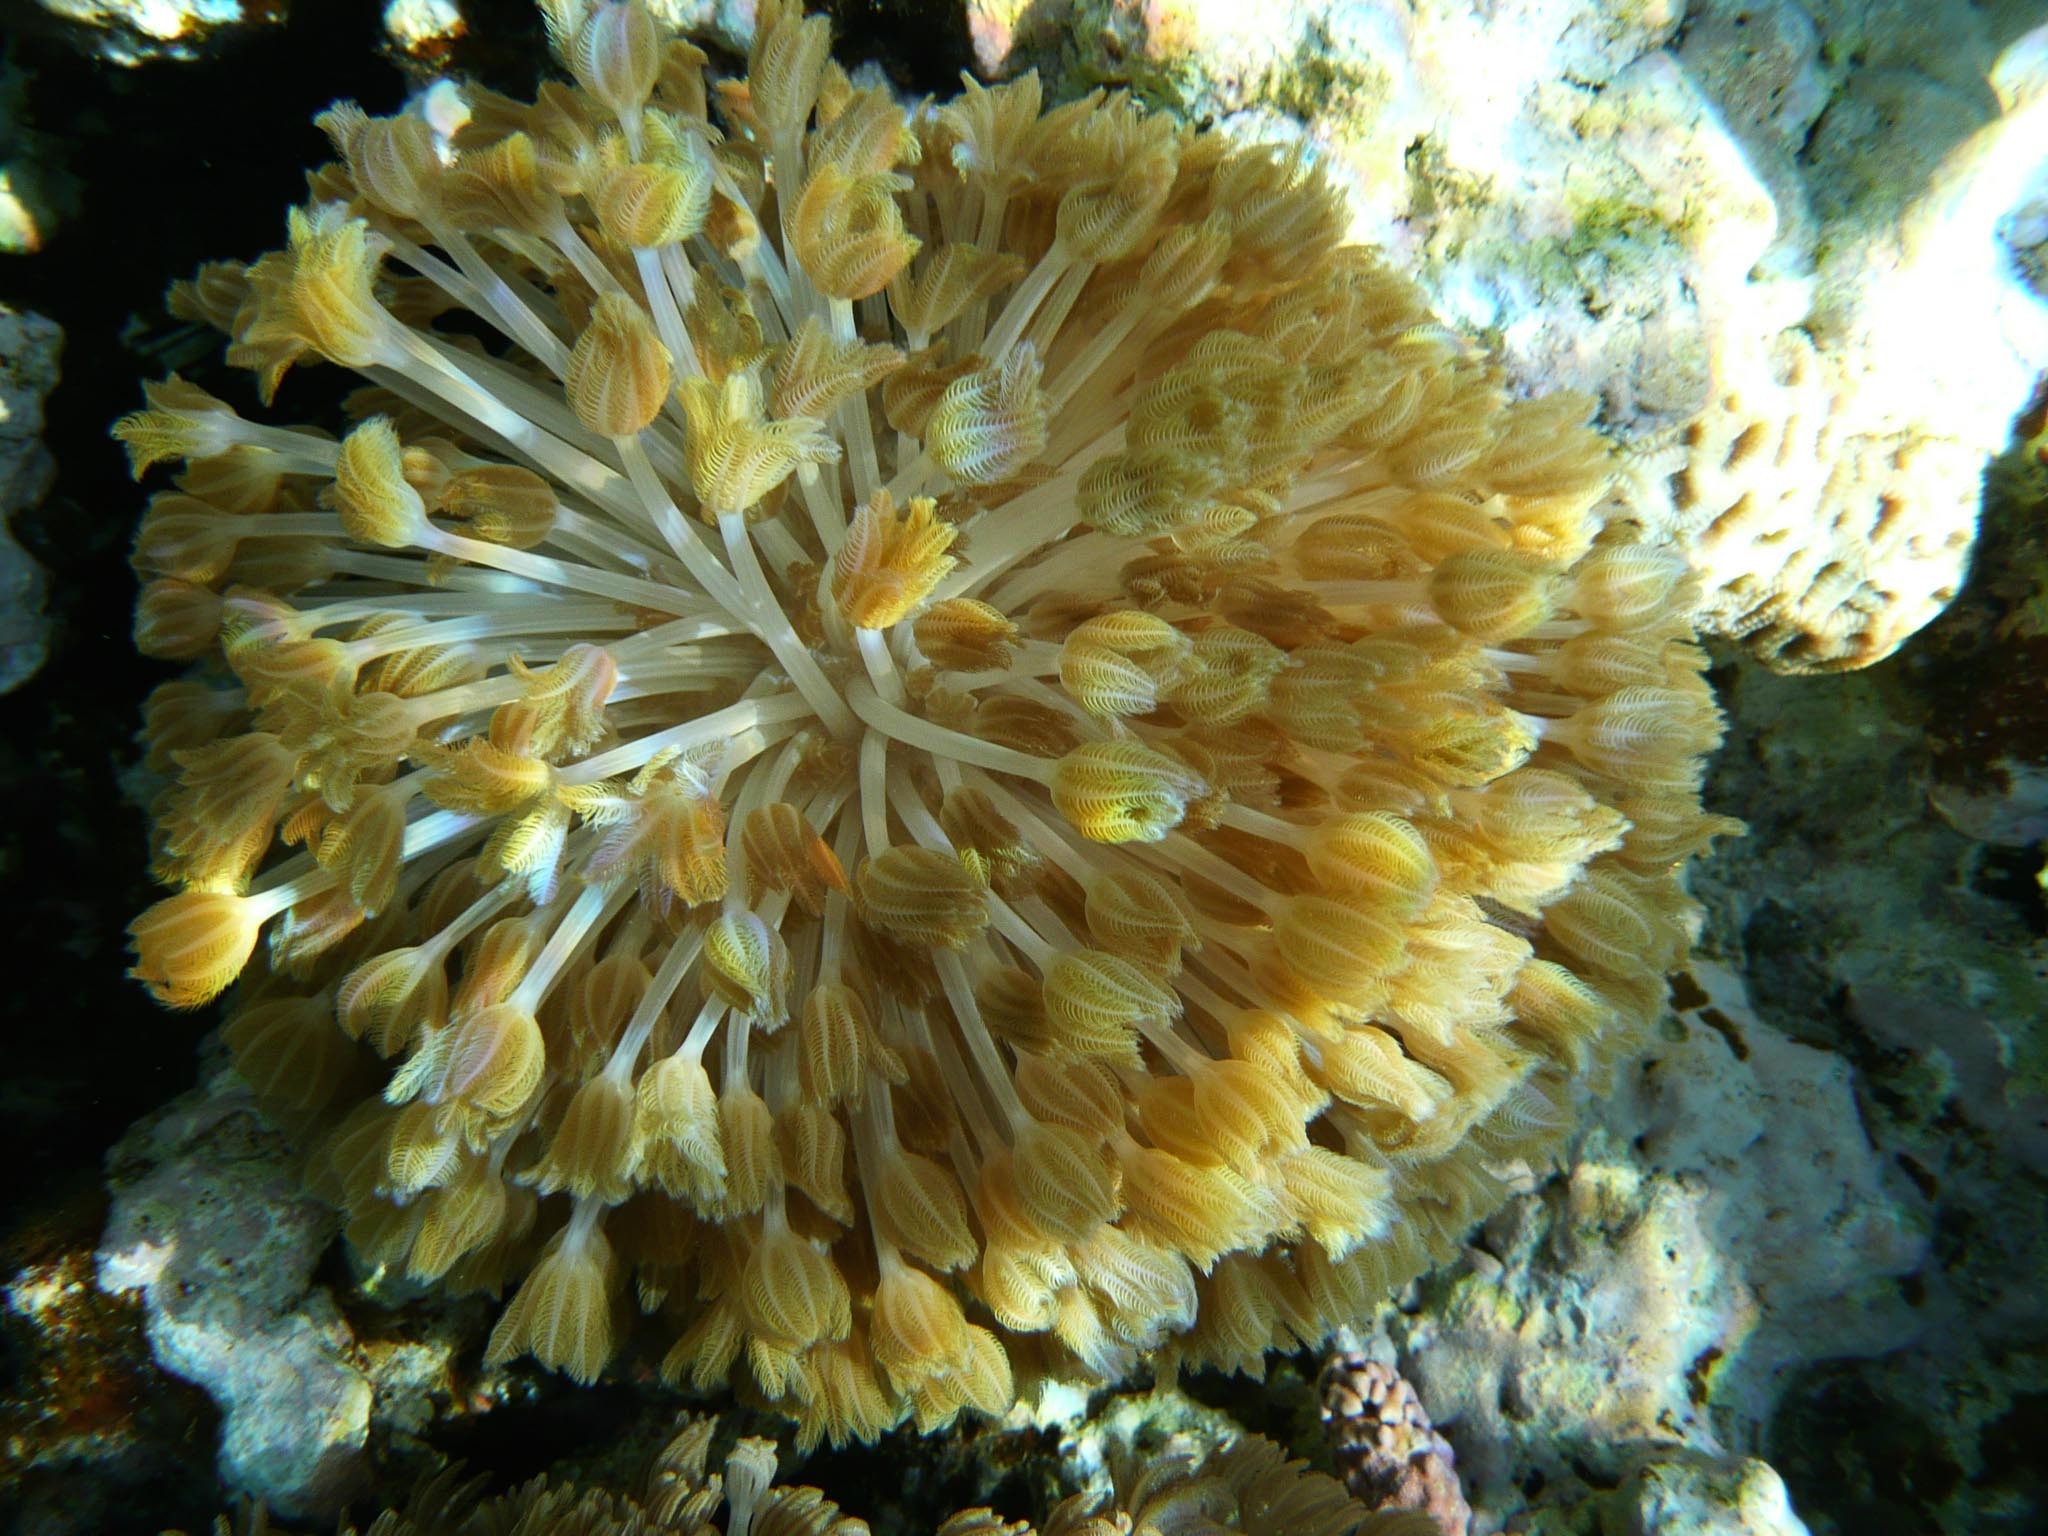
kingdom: Animalia
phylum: Cnidaria
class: Anthozoa
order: Malacalcyonacea
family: Xeniidae
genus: Heteroxenia
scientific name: Heteroxenia
